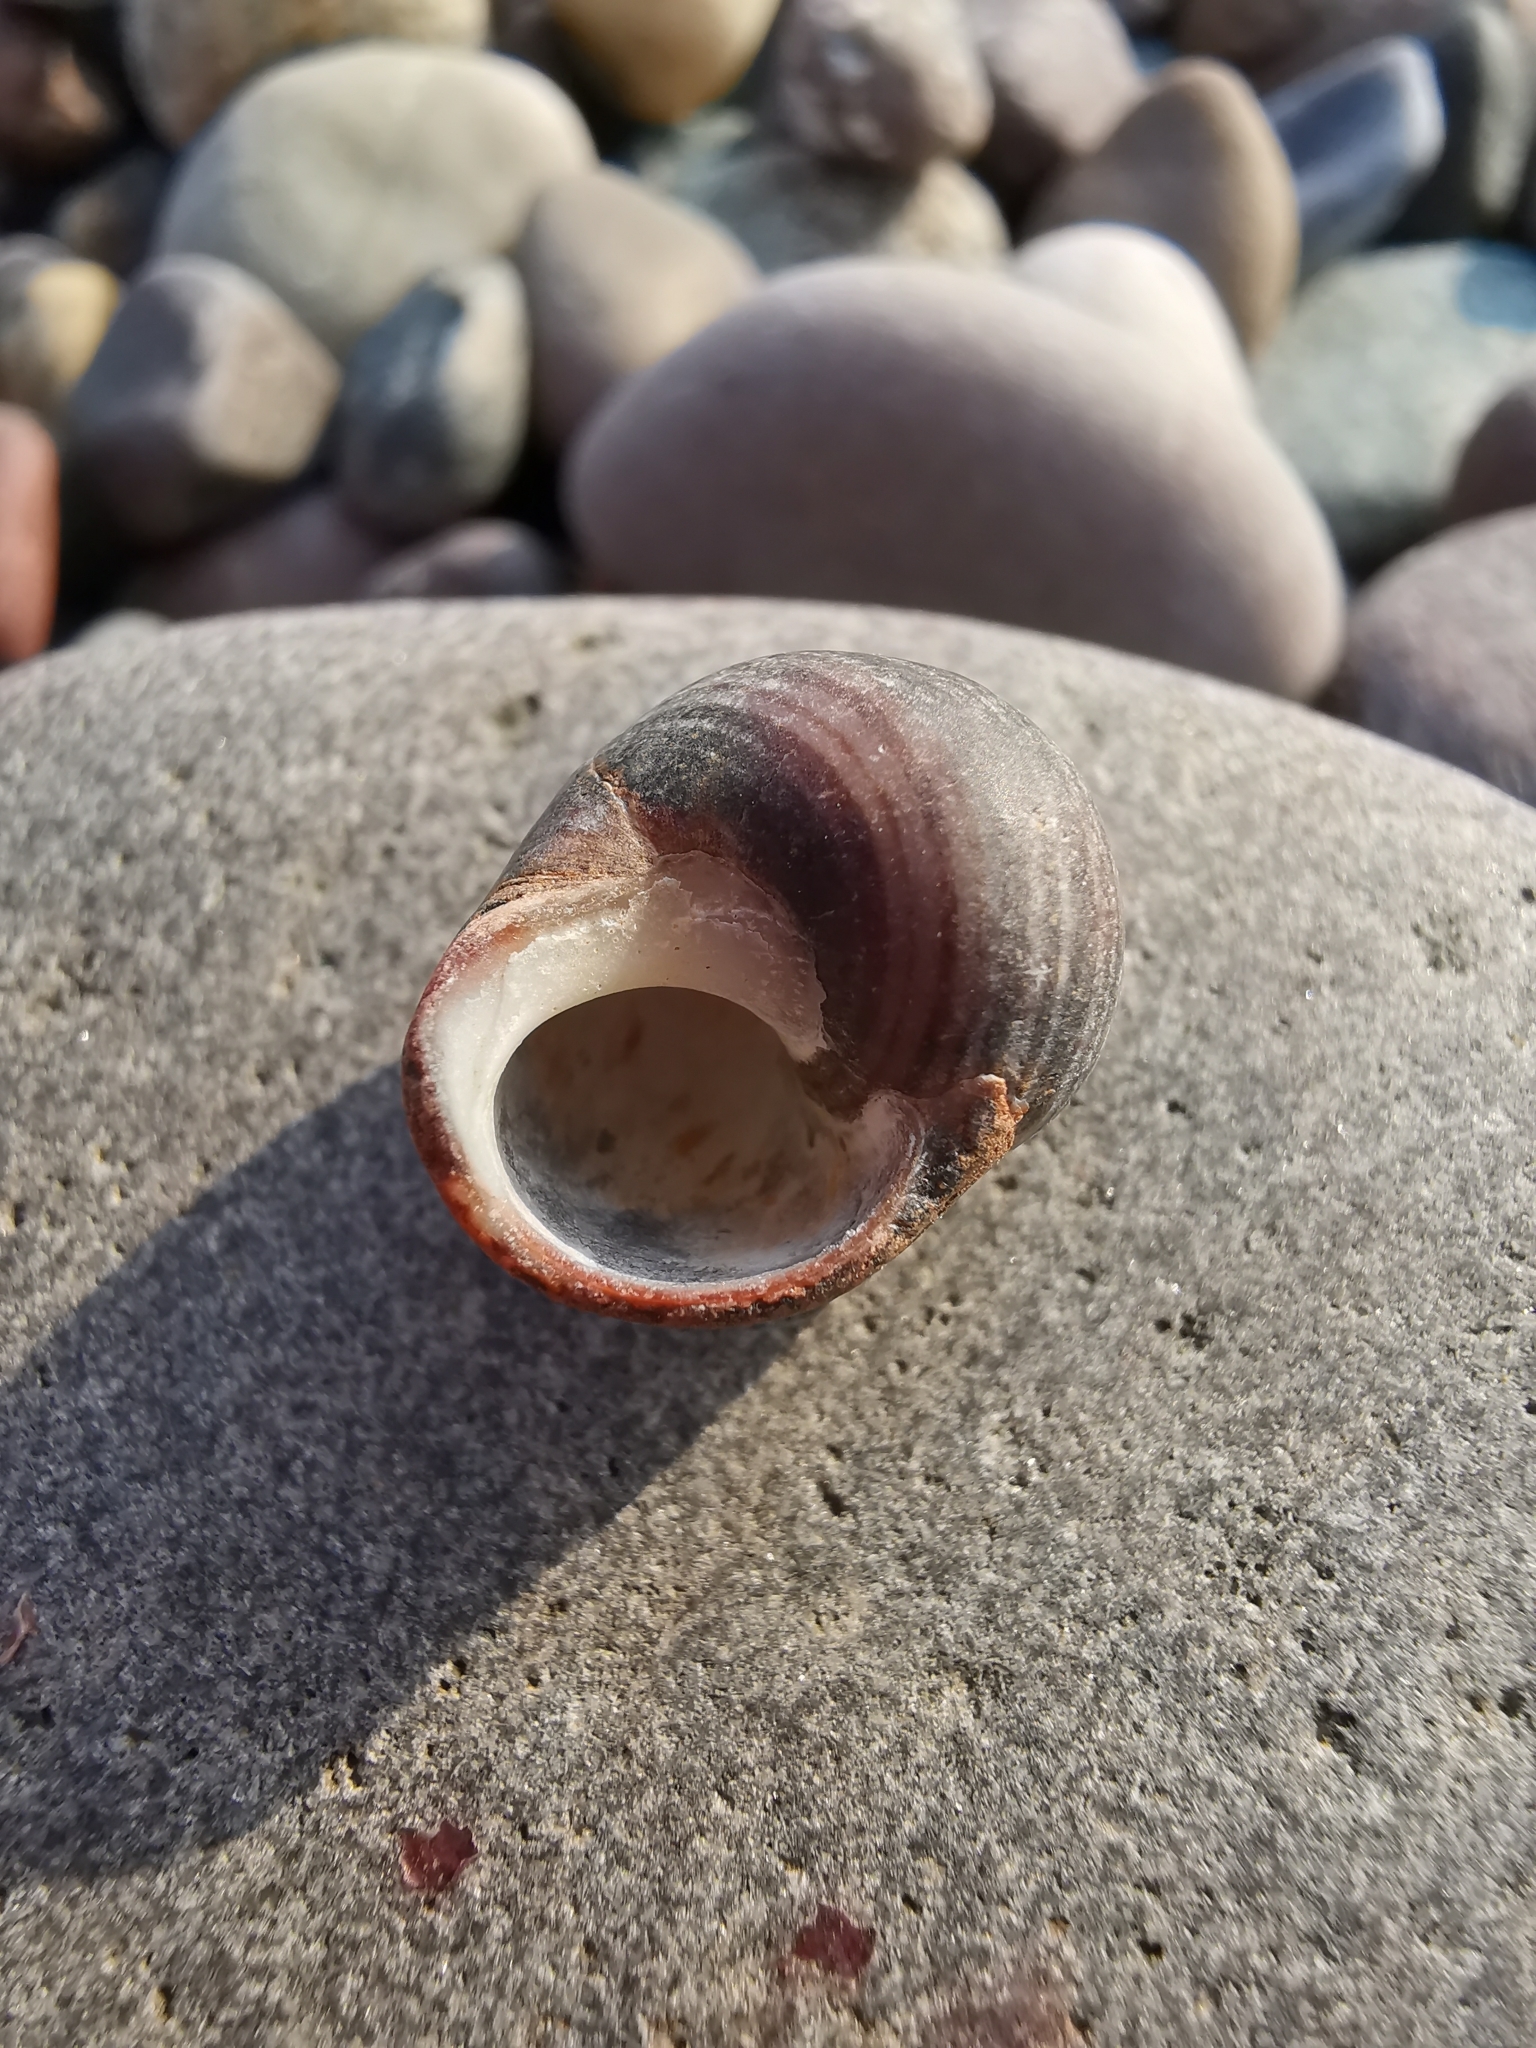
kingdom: Animalia
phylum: Mollusca
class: Gastropoda
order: Littorinimorpha
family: Littorinidae
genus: Littorina
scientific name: Littorina littorea
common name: Common periwinkle
